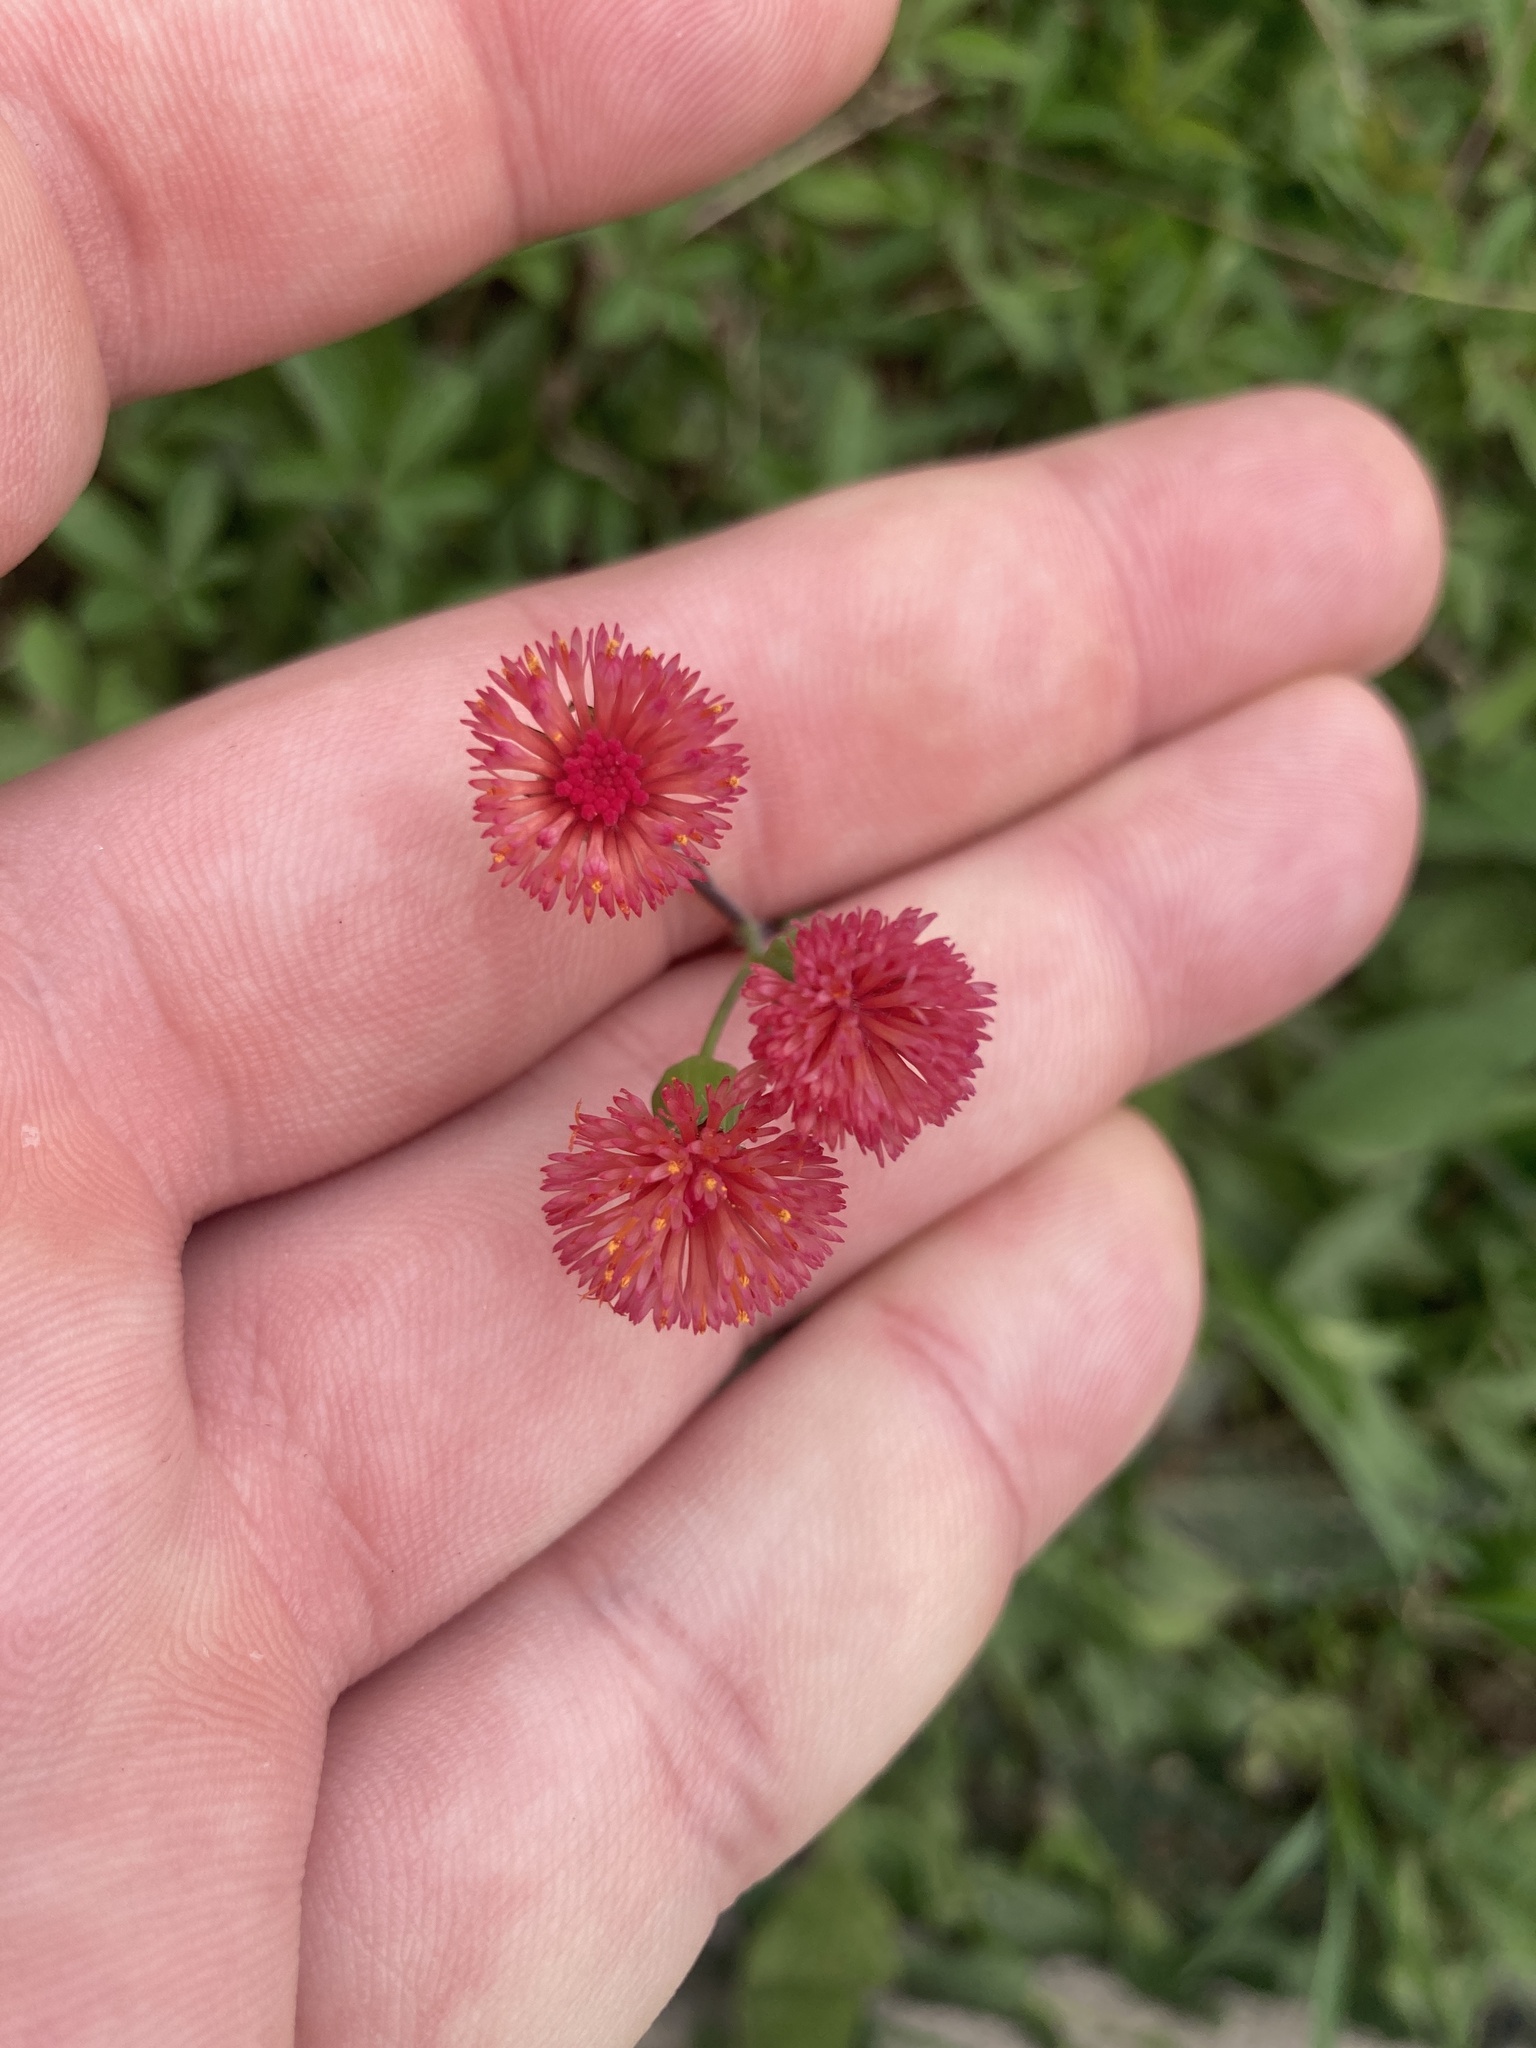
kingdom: Plantae
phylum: Tracheophyta
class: Magnoliopsida
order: Asterales
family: Asteraceae
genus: Emilia
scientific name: Emilia fosbergii
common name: Florida tasselflower
